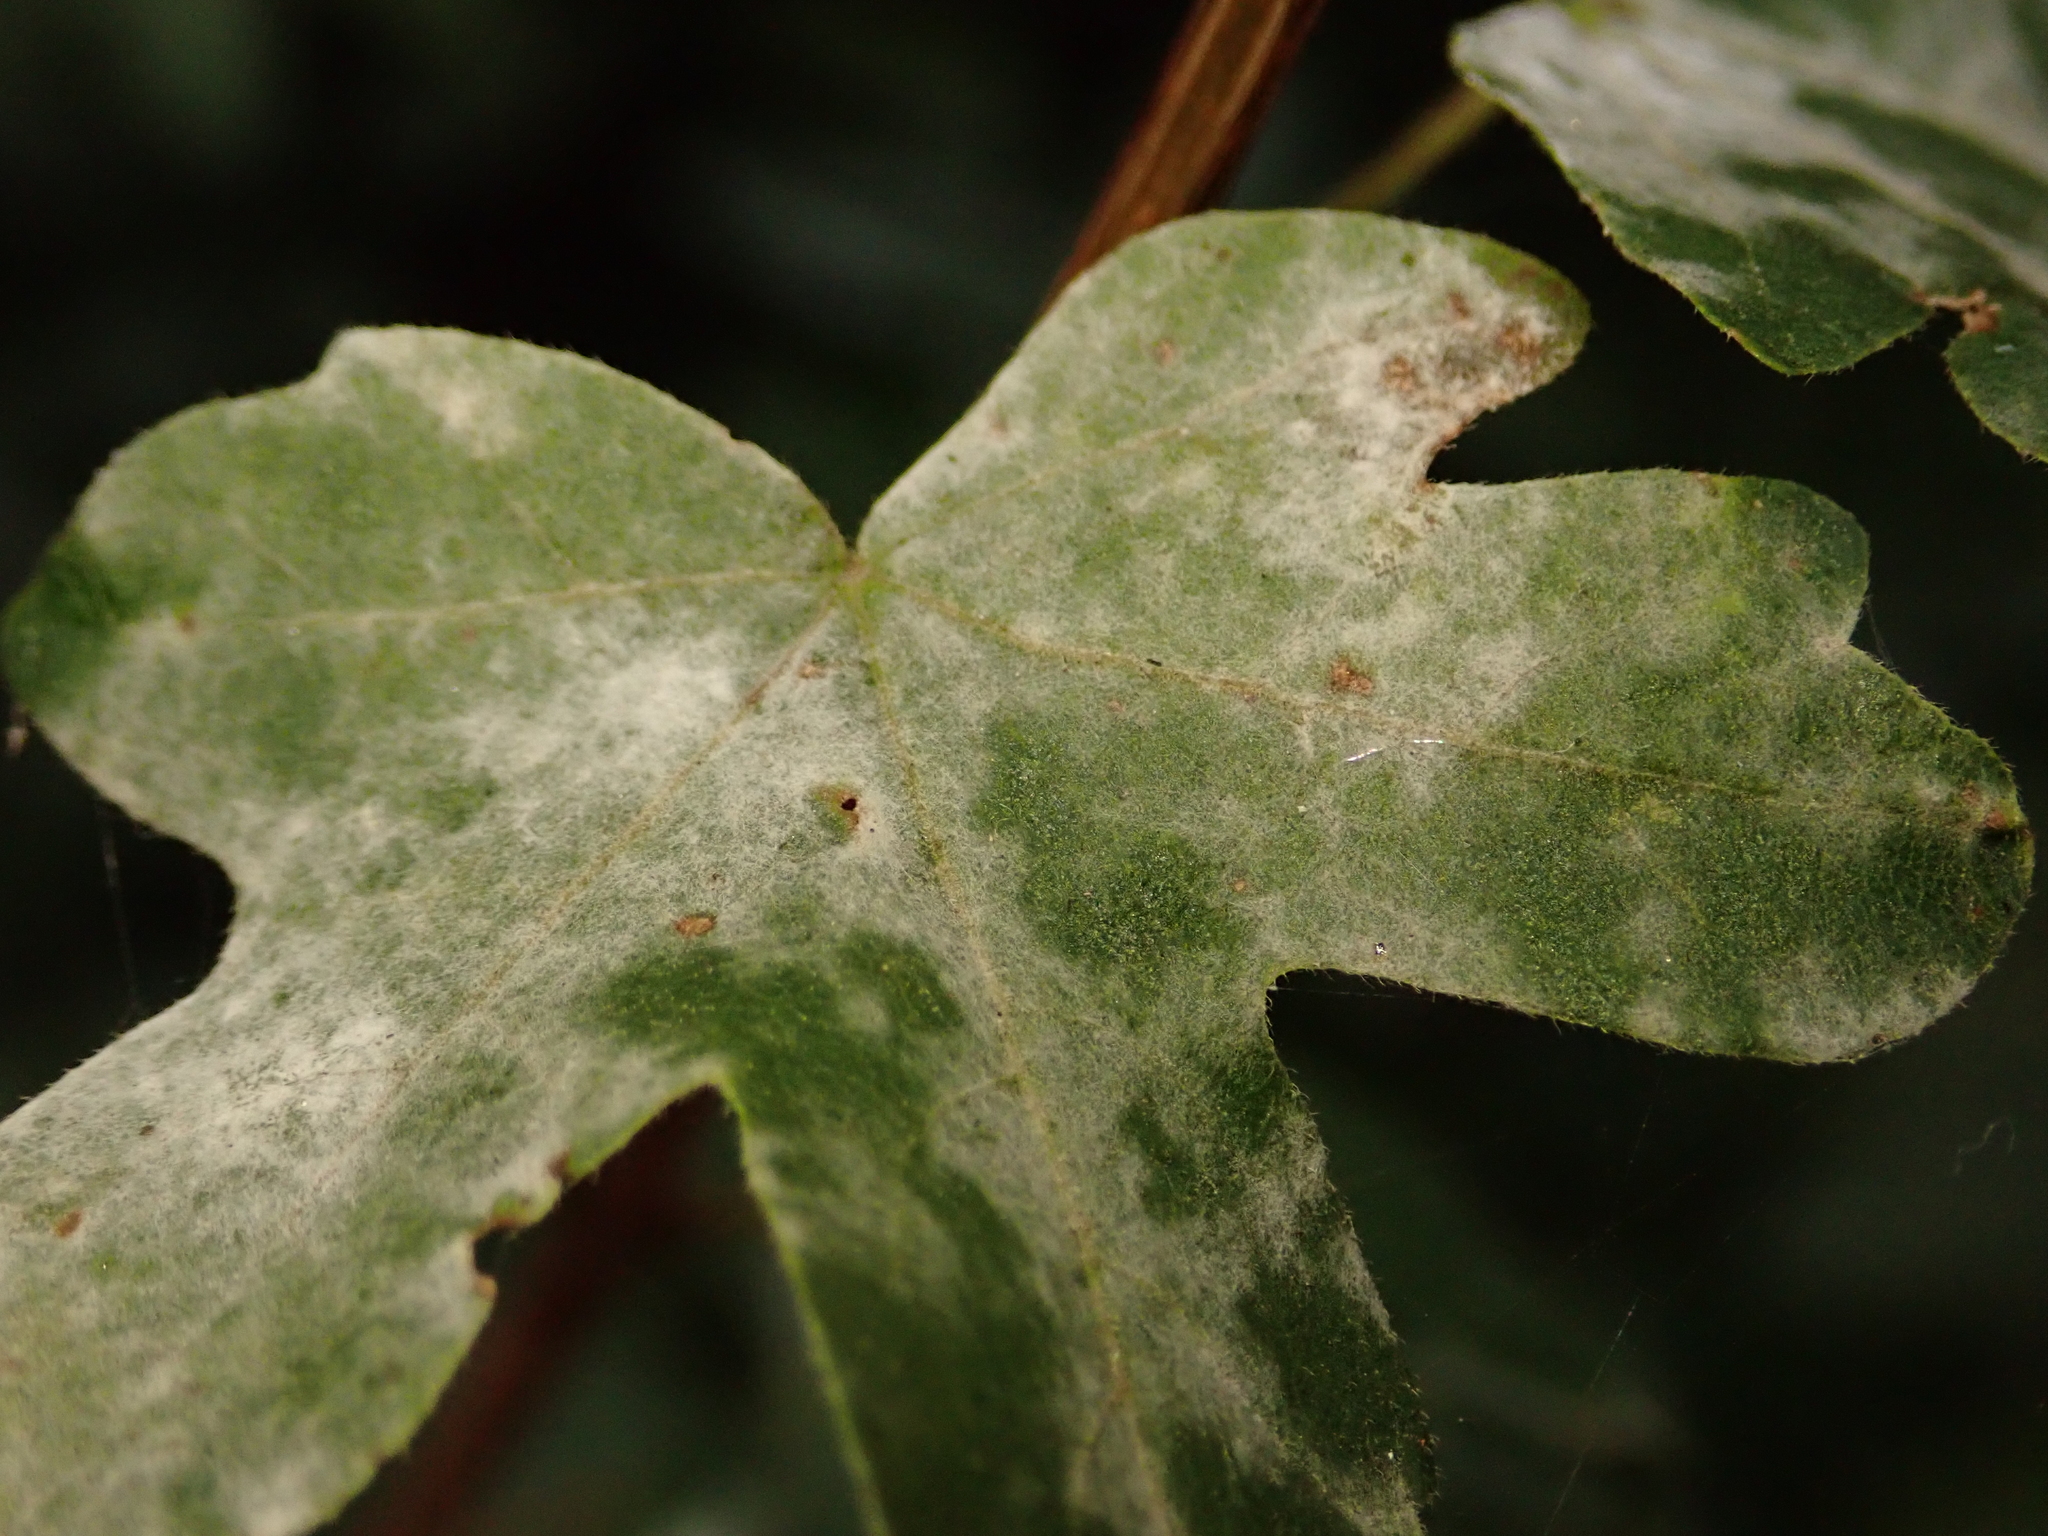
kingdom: Fungi
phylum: Ascomycota
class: Leotiomycetes
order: Helotiales
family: Erysiphaceae
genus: Sawadaea
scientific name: Sawadaea bicornis
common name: Maple mildew
